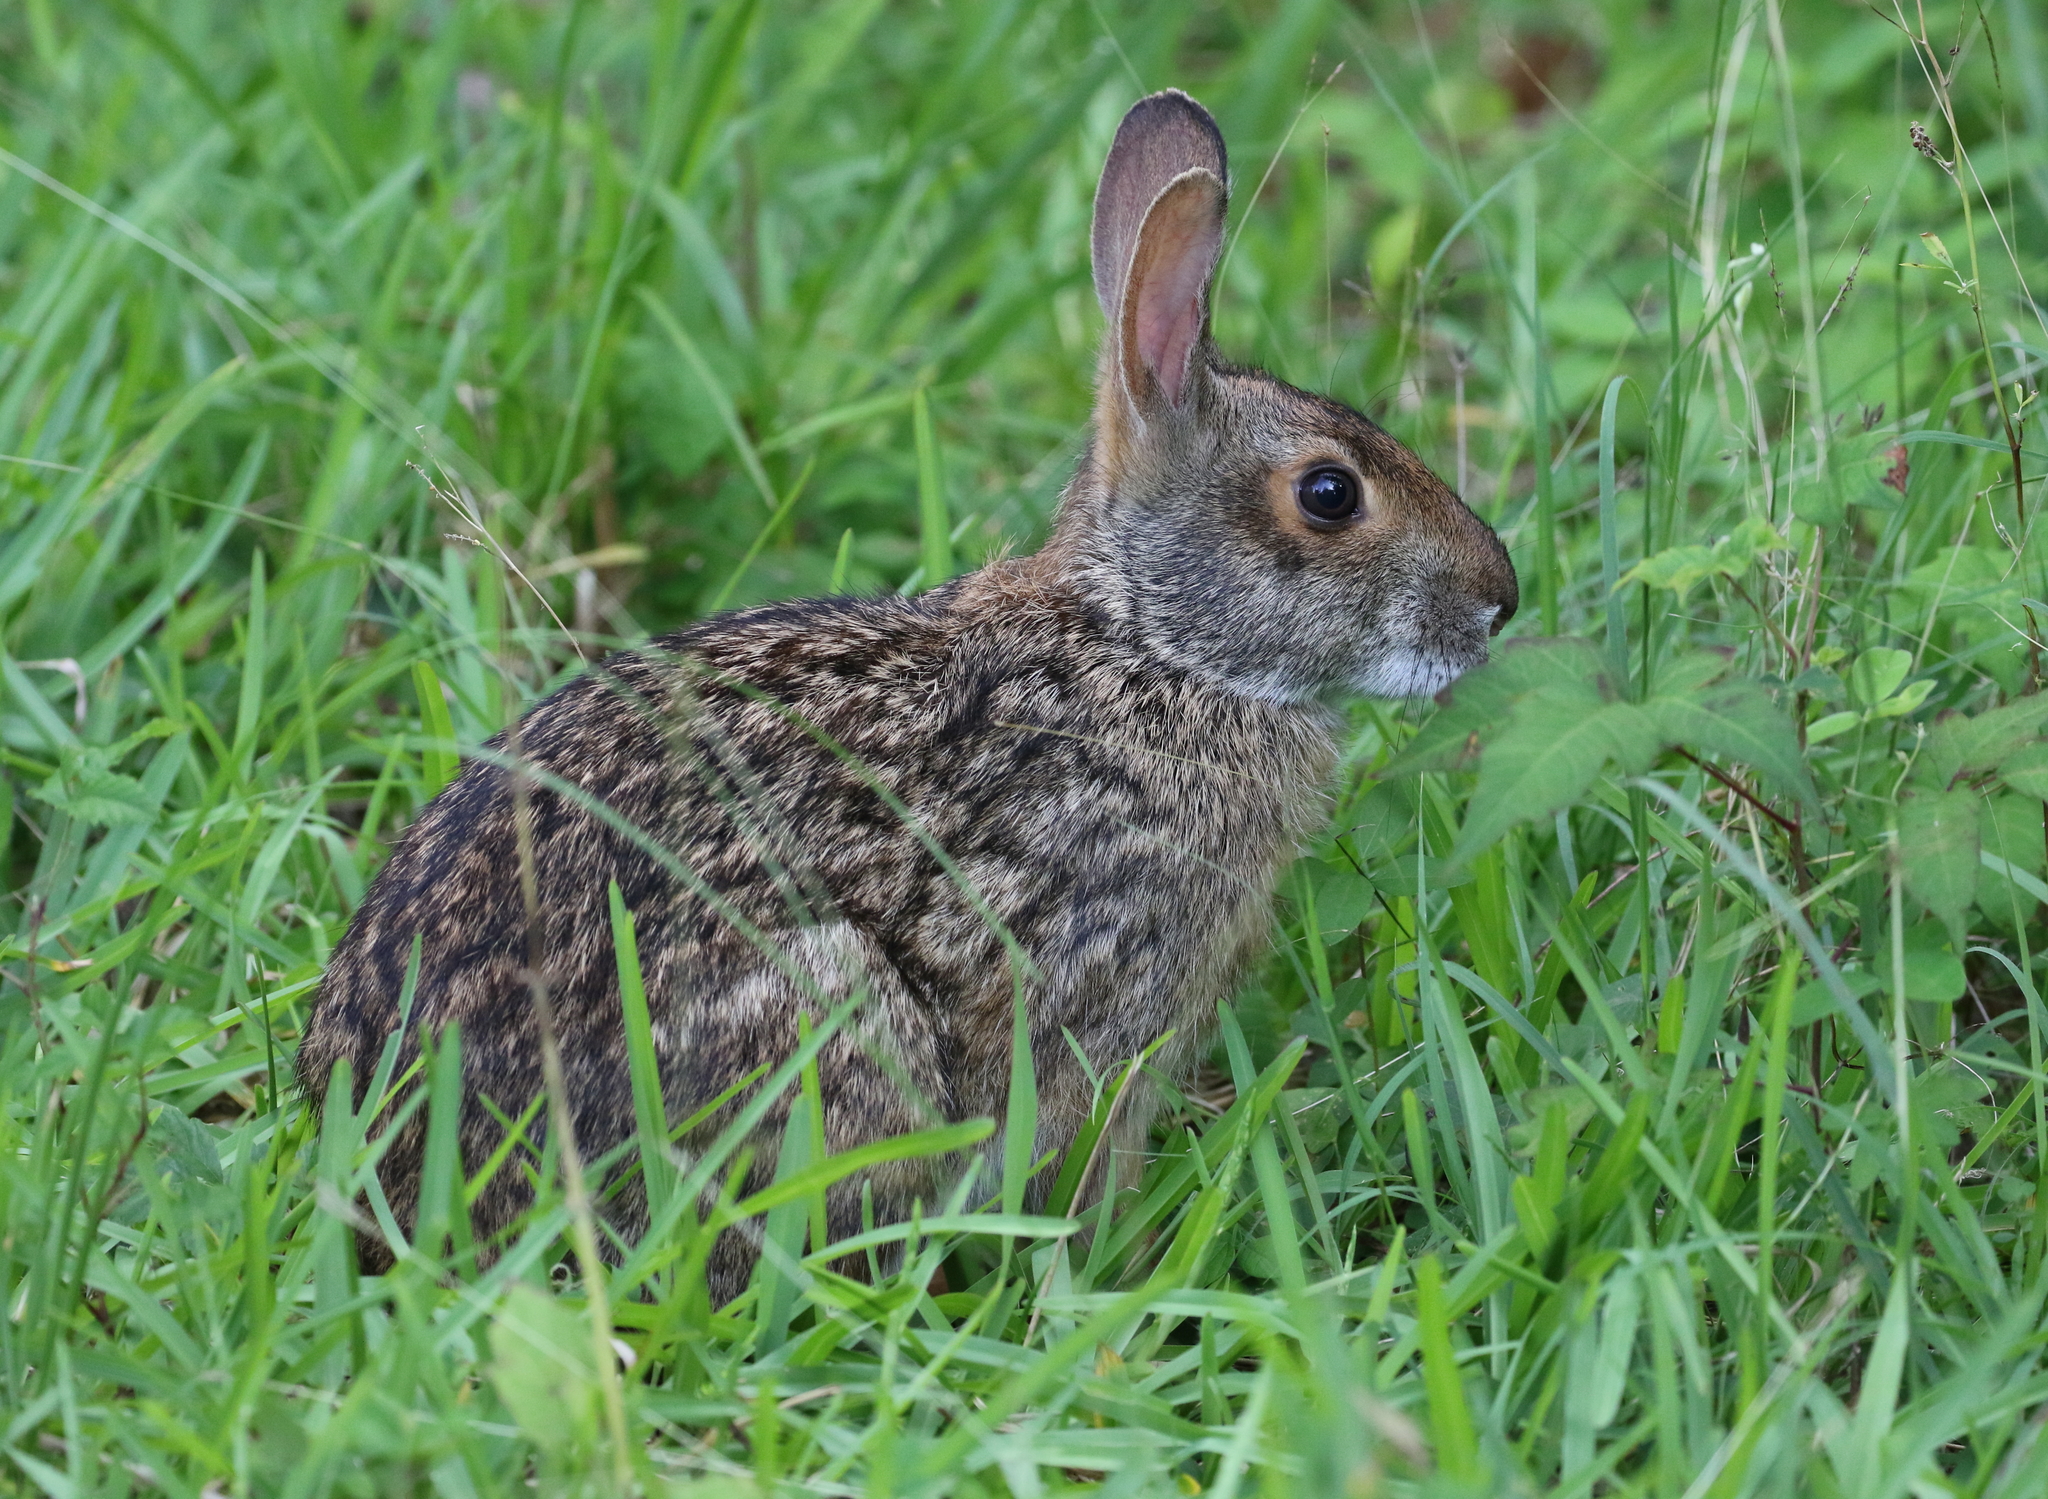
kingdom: Animalia
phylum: Chordata
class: Mammalia
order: Lagomorpha
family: Leporidae
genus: Sylvilagus
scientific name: Sylvilagus aquaticus
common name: Swamp rabbit
